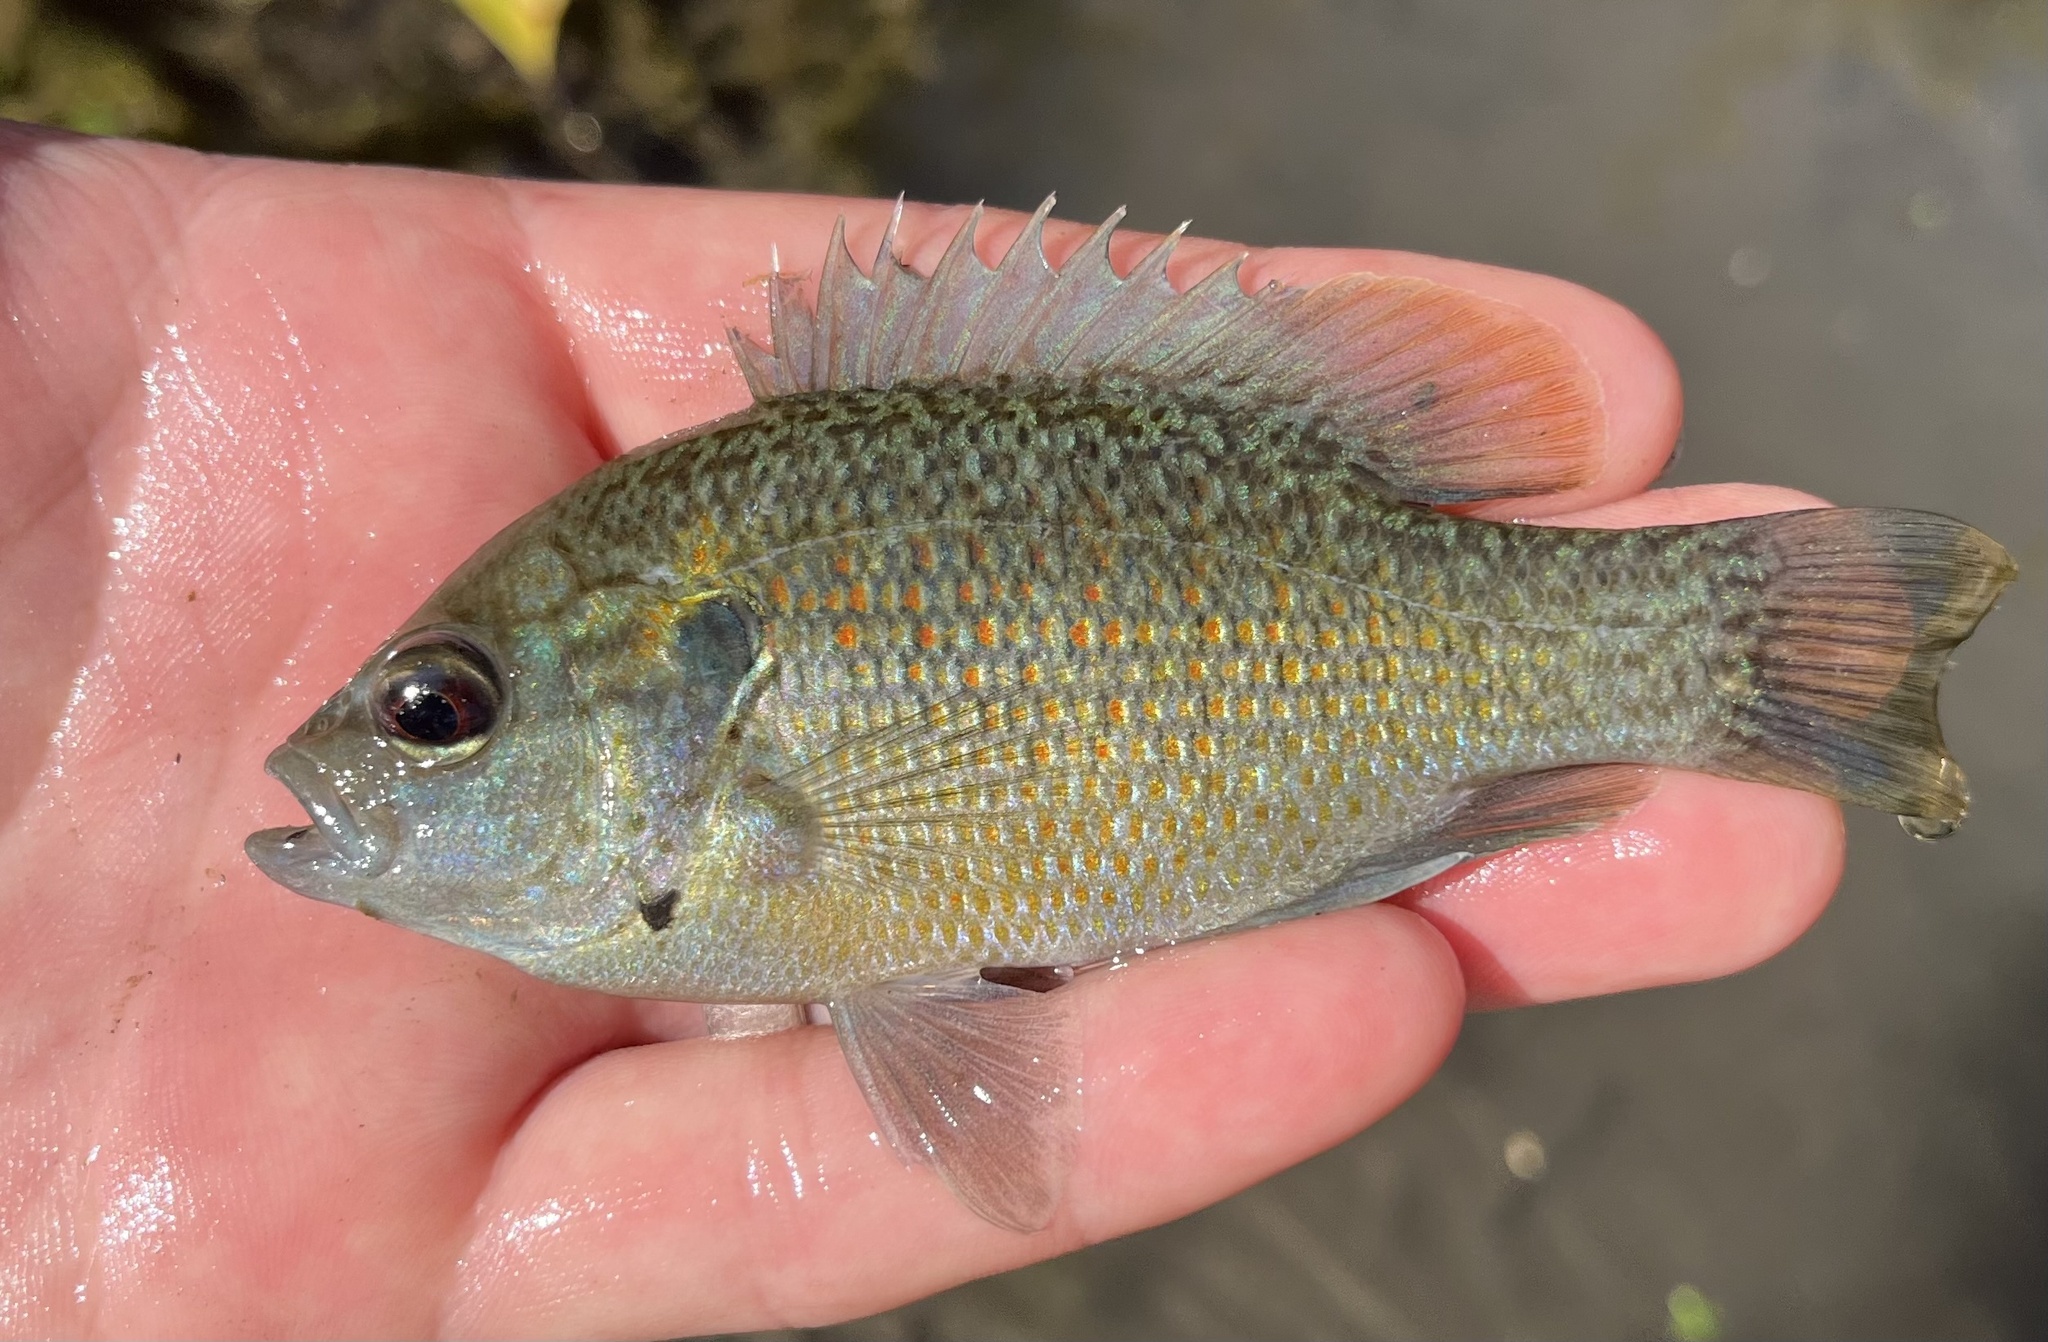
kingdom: Animalia
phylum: Chordata
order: Perciformes
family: Centrarchidae
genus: Lepomis
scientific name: Lepomis miniatus
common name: Redspotted sunfish
